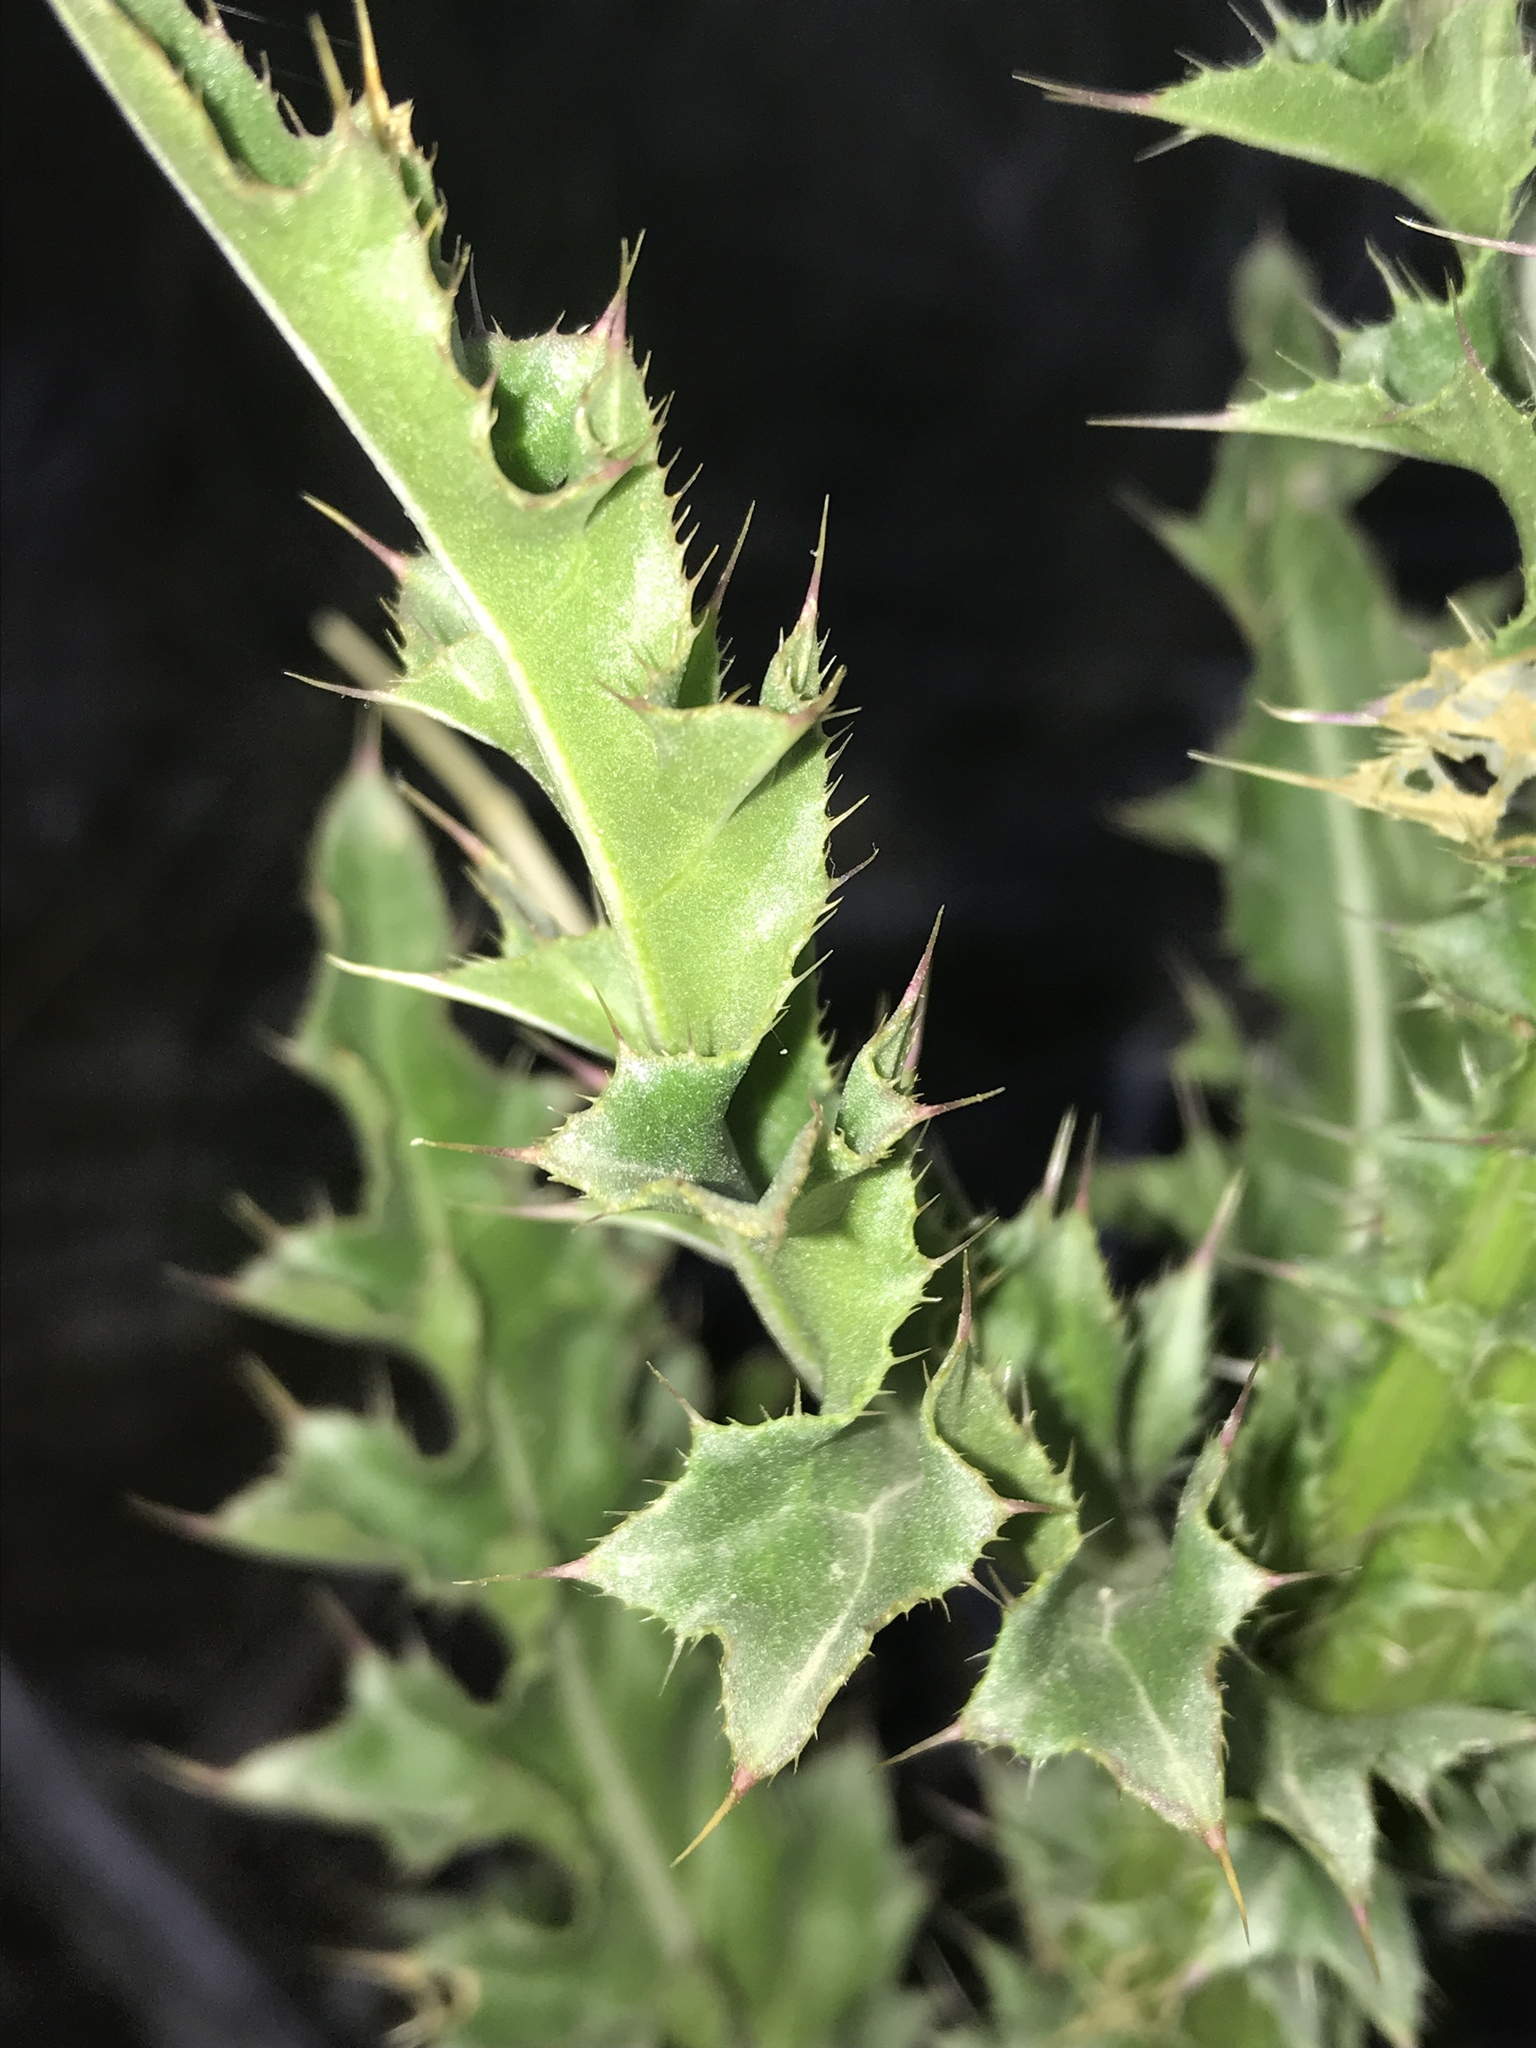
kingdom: Plantae
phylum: Tracheophyta
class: Magnoliopsida
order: Asterales
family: Asteraceae
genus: Carduus
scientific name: Carduus nutans
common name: Musk thistle
